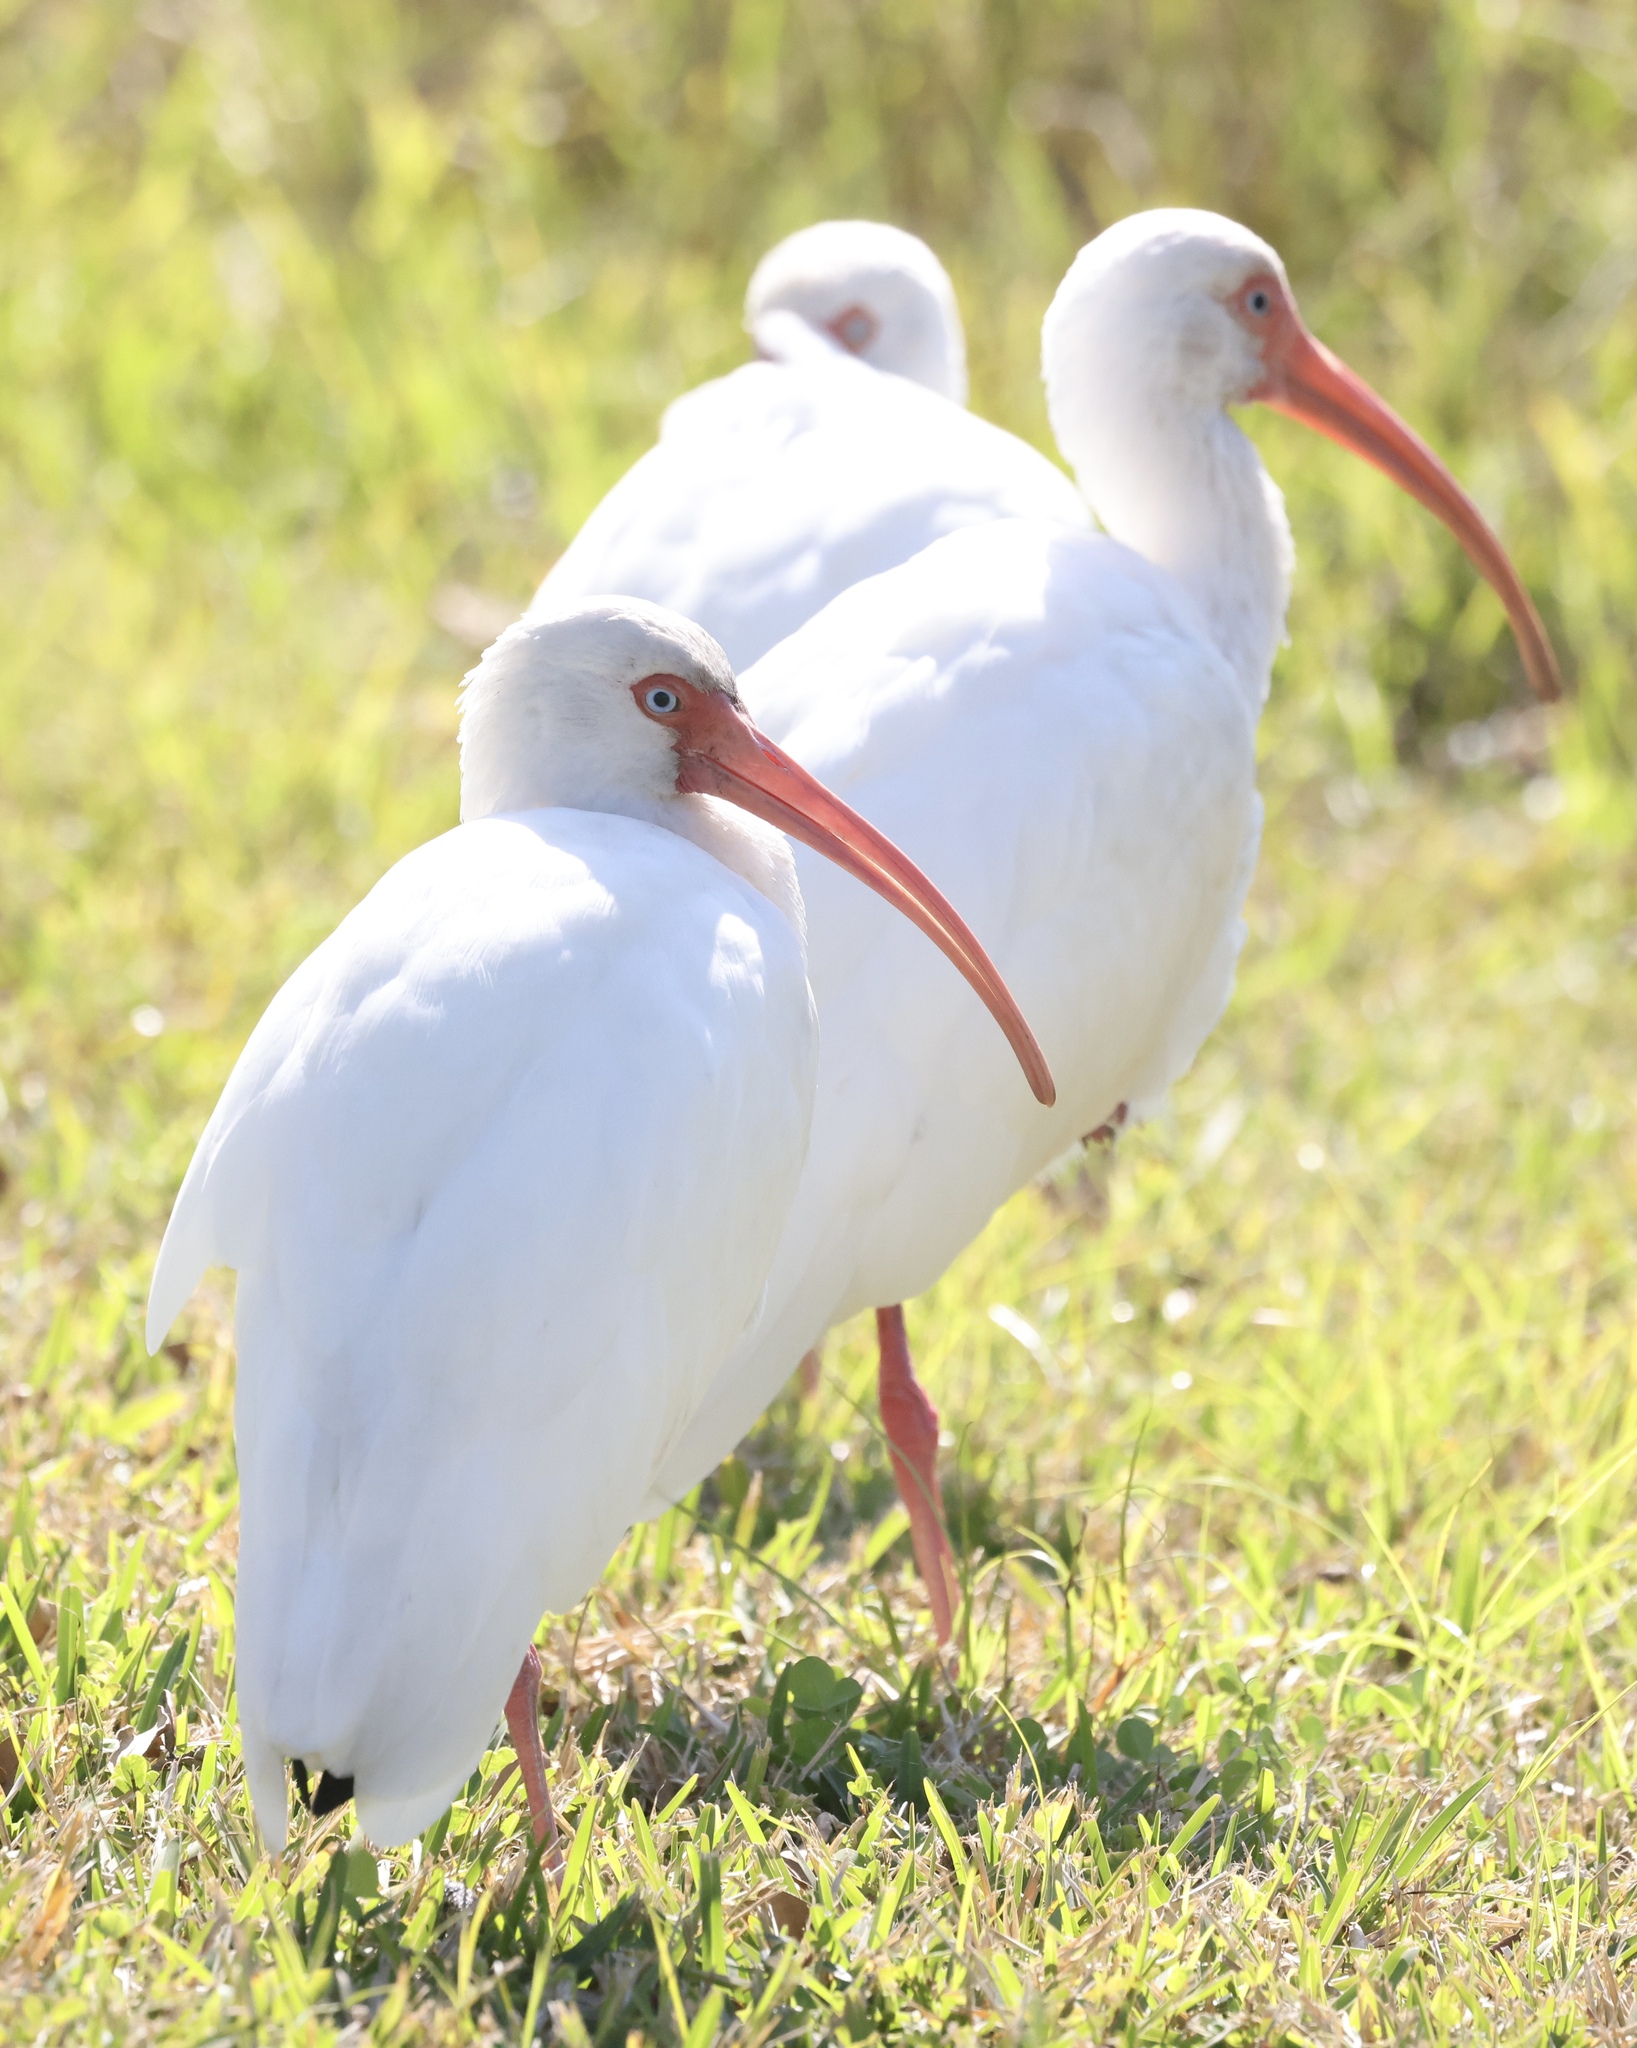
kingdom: Animalia
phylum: Chordata
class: Aves
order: Pelecaniformes
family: Threskiornithidae
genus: Eudocimus
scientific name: Eudocimus albus
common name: White ibis
